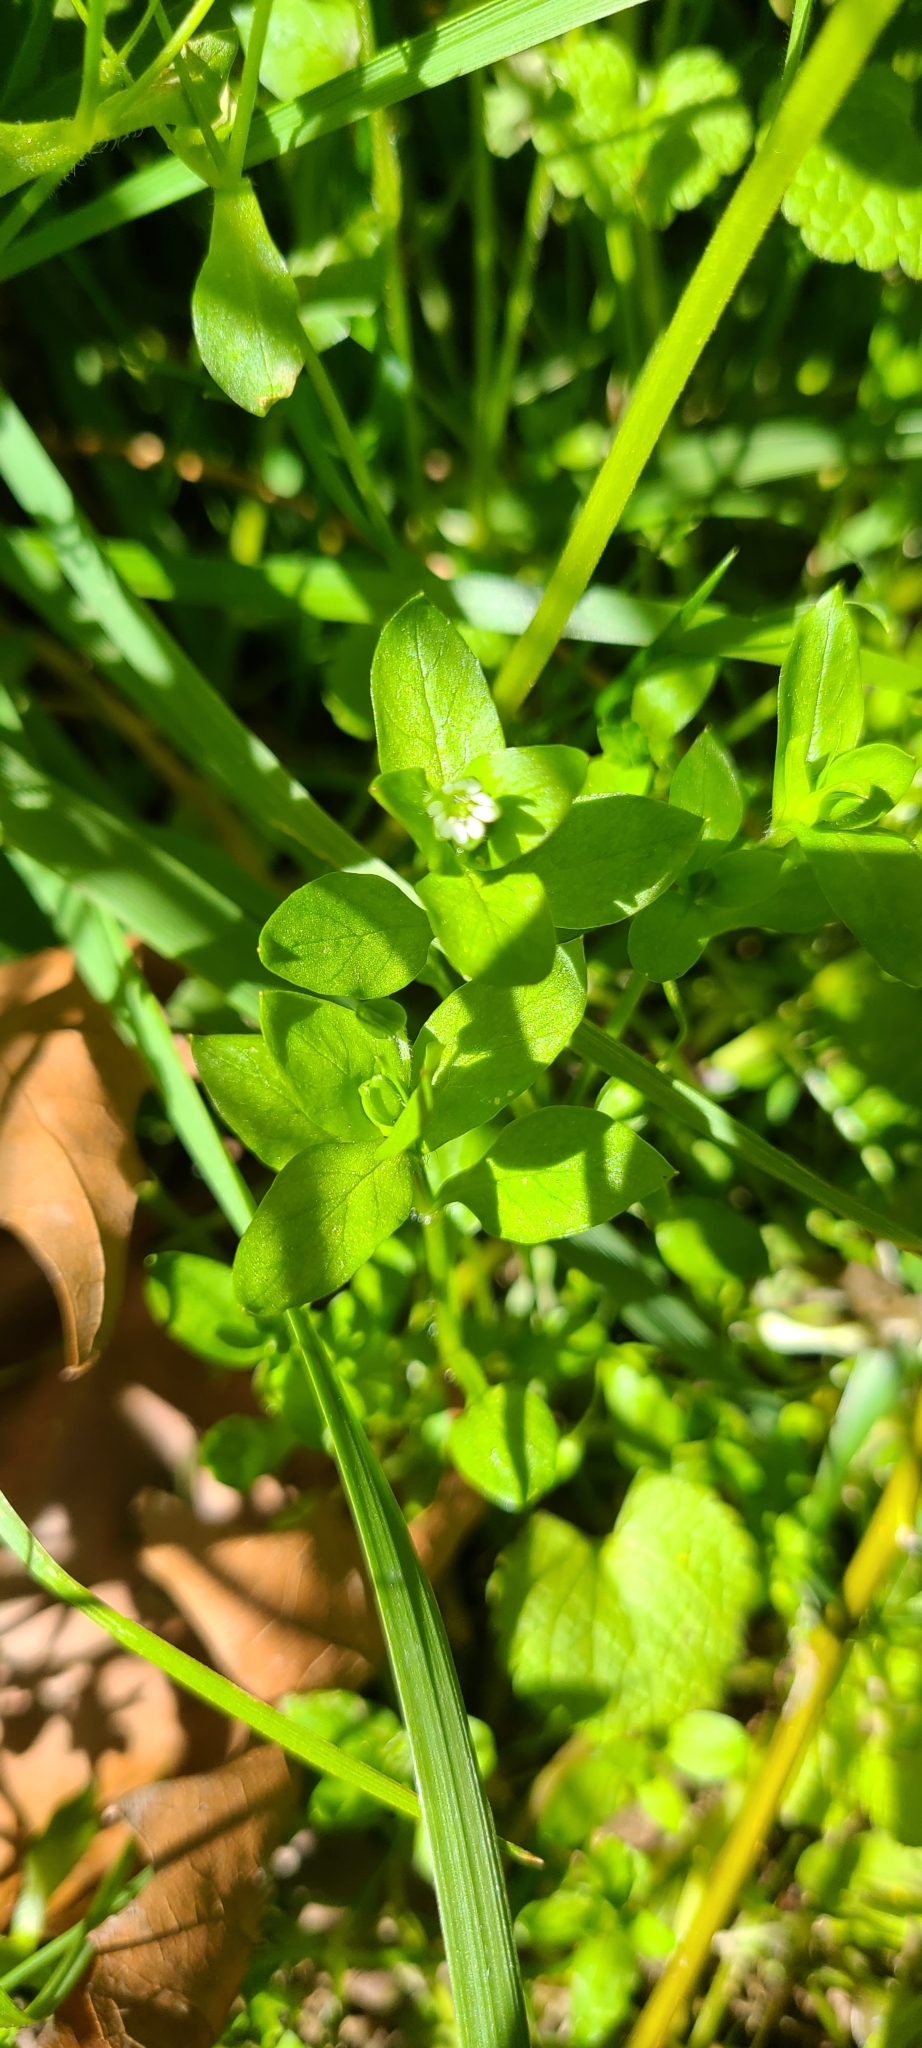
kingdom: Plantae
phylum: Tracheophyta
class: Magnoliopsida
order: Caryophyllales
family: Caryophyllaceae
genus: Stellaria
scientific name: Stellaria media
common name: Common chickweed
